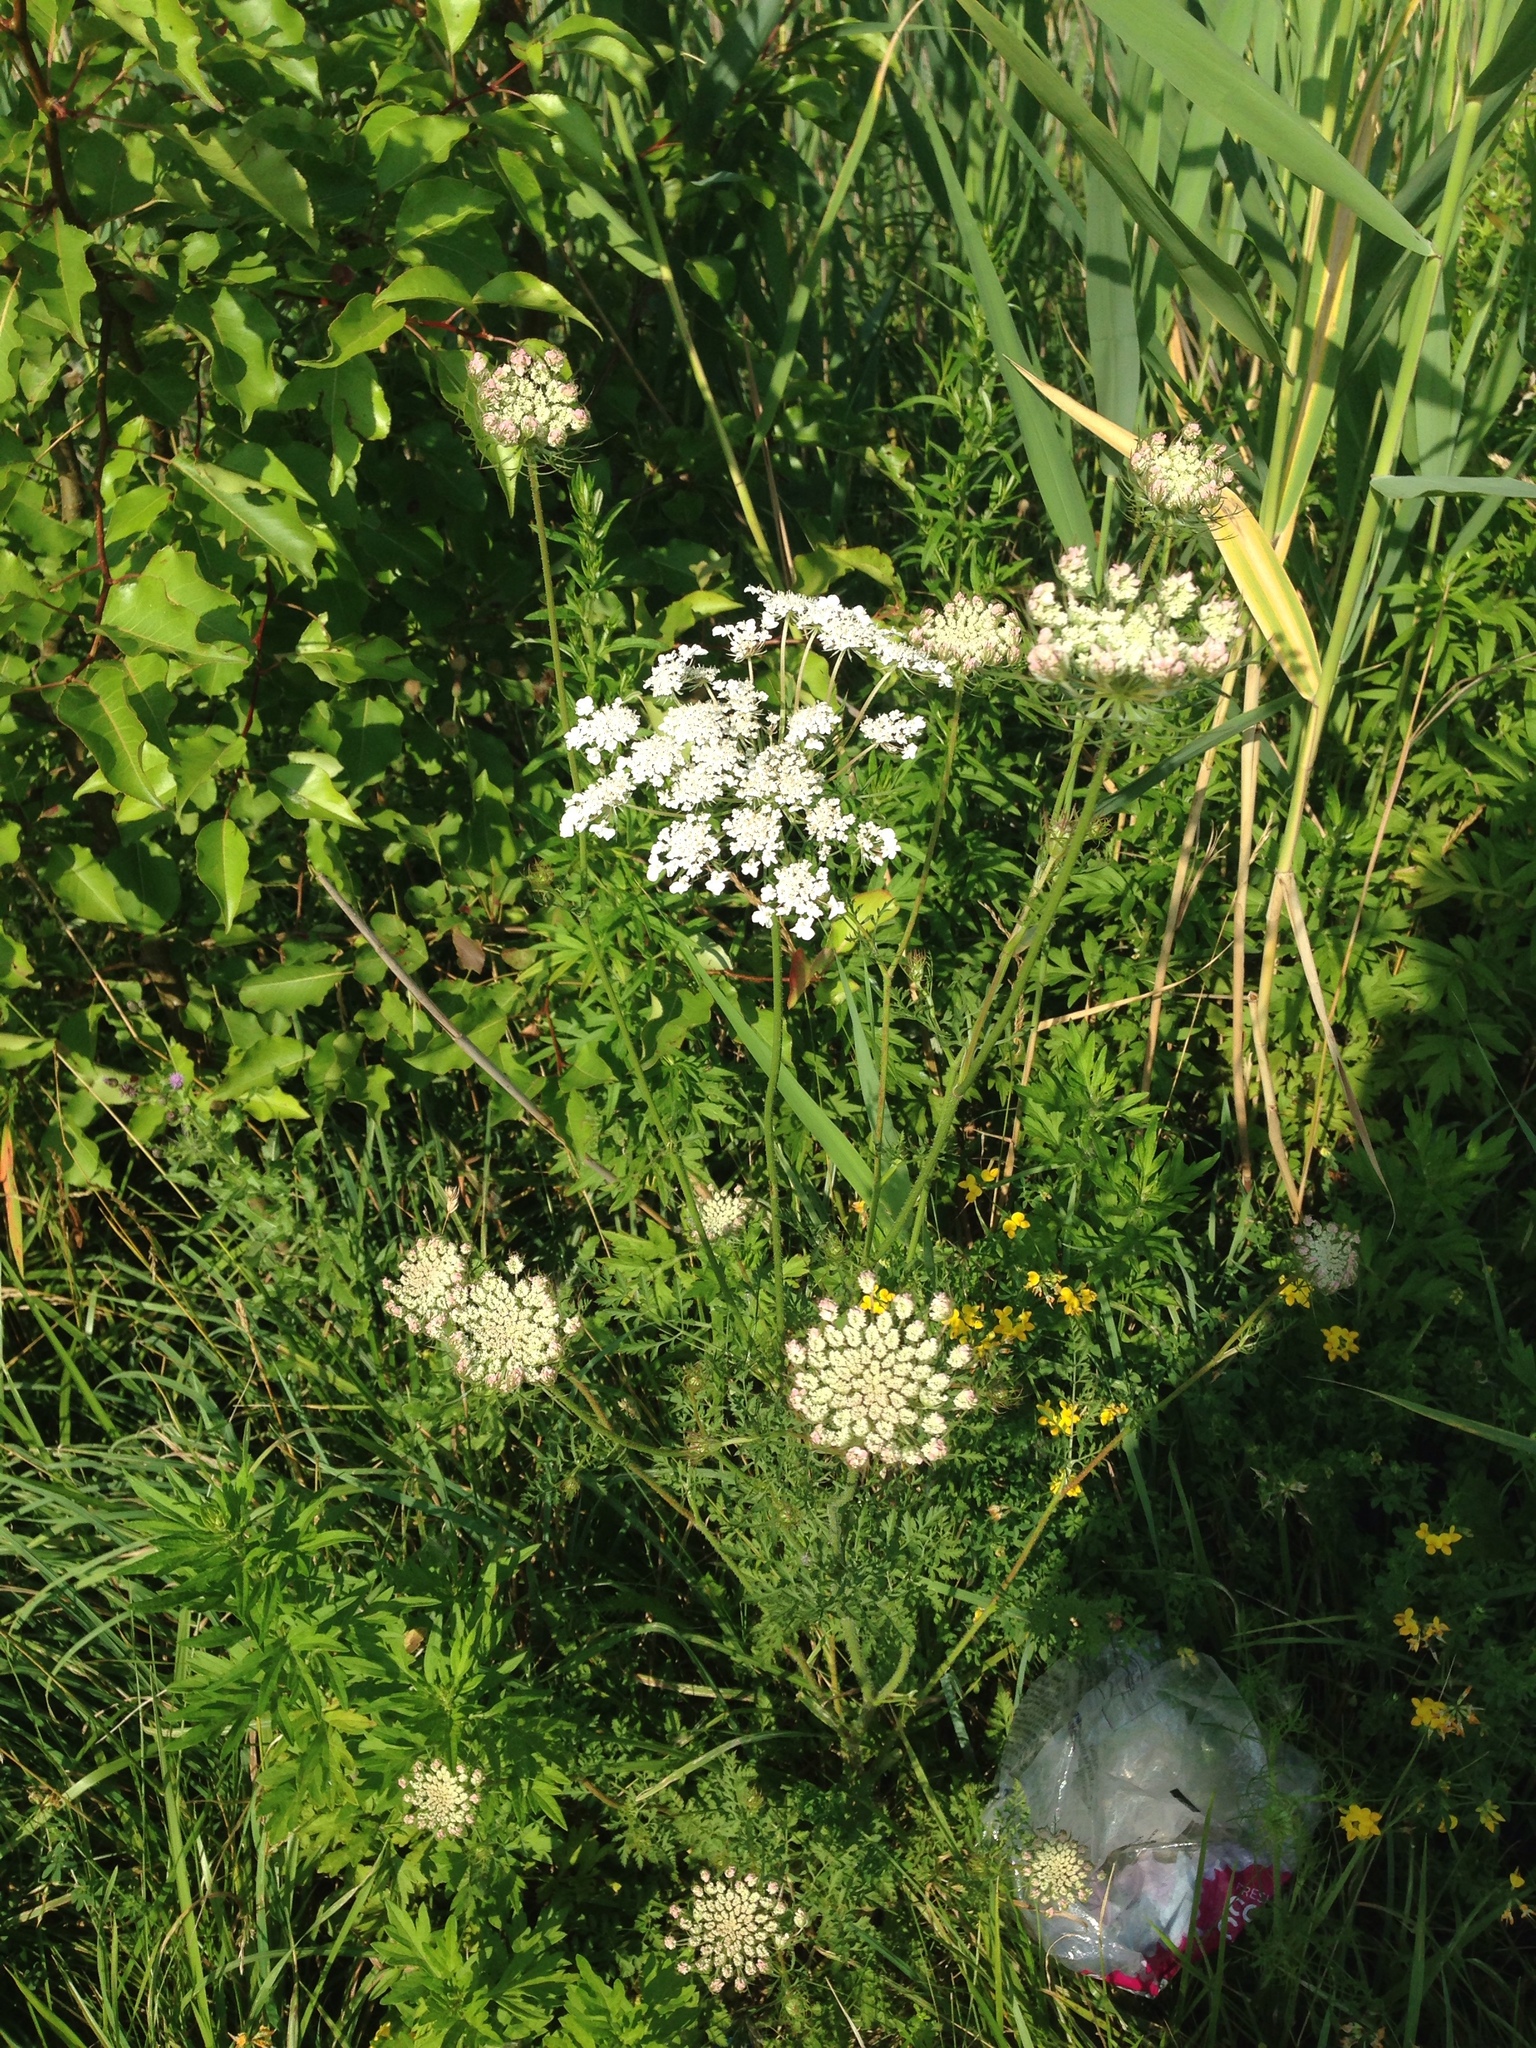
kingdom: Plantae
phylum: Tracheophyta
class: Magnoliopsida
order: Apiales
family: Apiaceae
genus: Daucus
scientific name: Daucus carota
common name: Wild carrot
